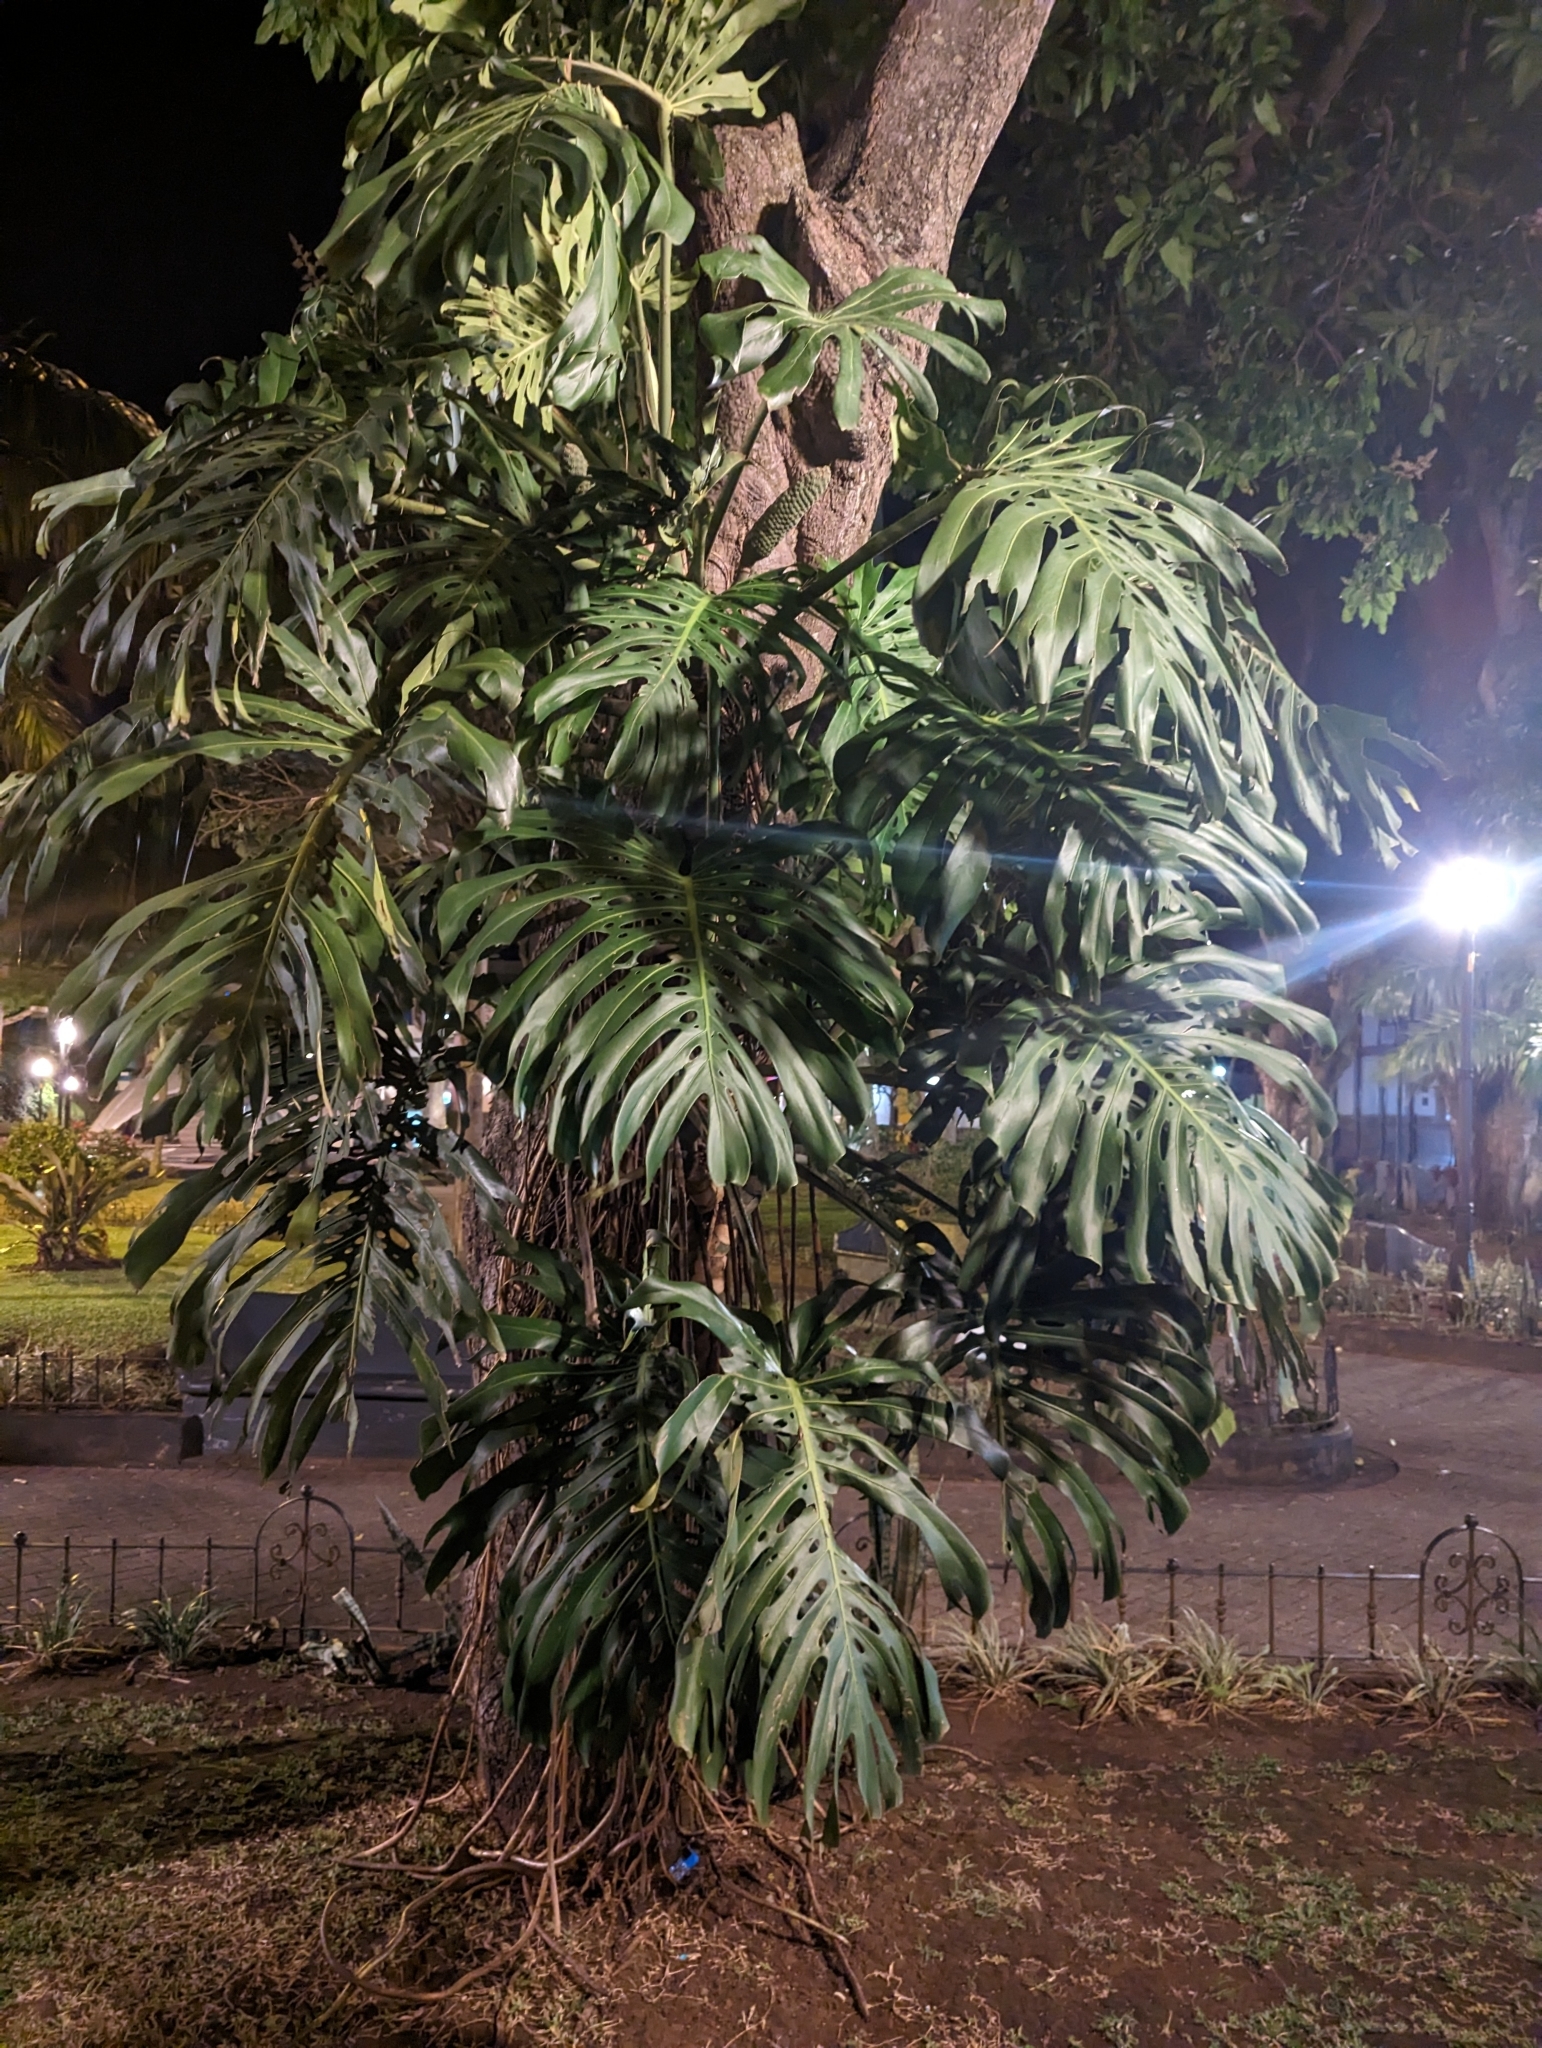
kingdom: Plantae
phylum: Tracheophyta
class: Liliopsida
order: Alismatales
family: Araceae
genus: Monstera
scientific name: Monstera deliciosa
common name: Cut-leaf-philodendron
